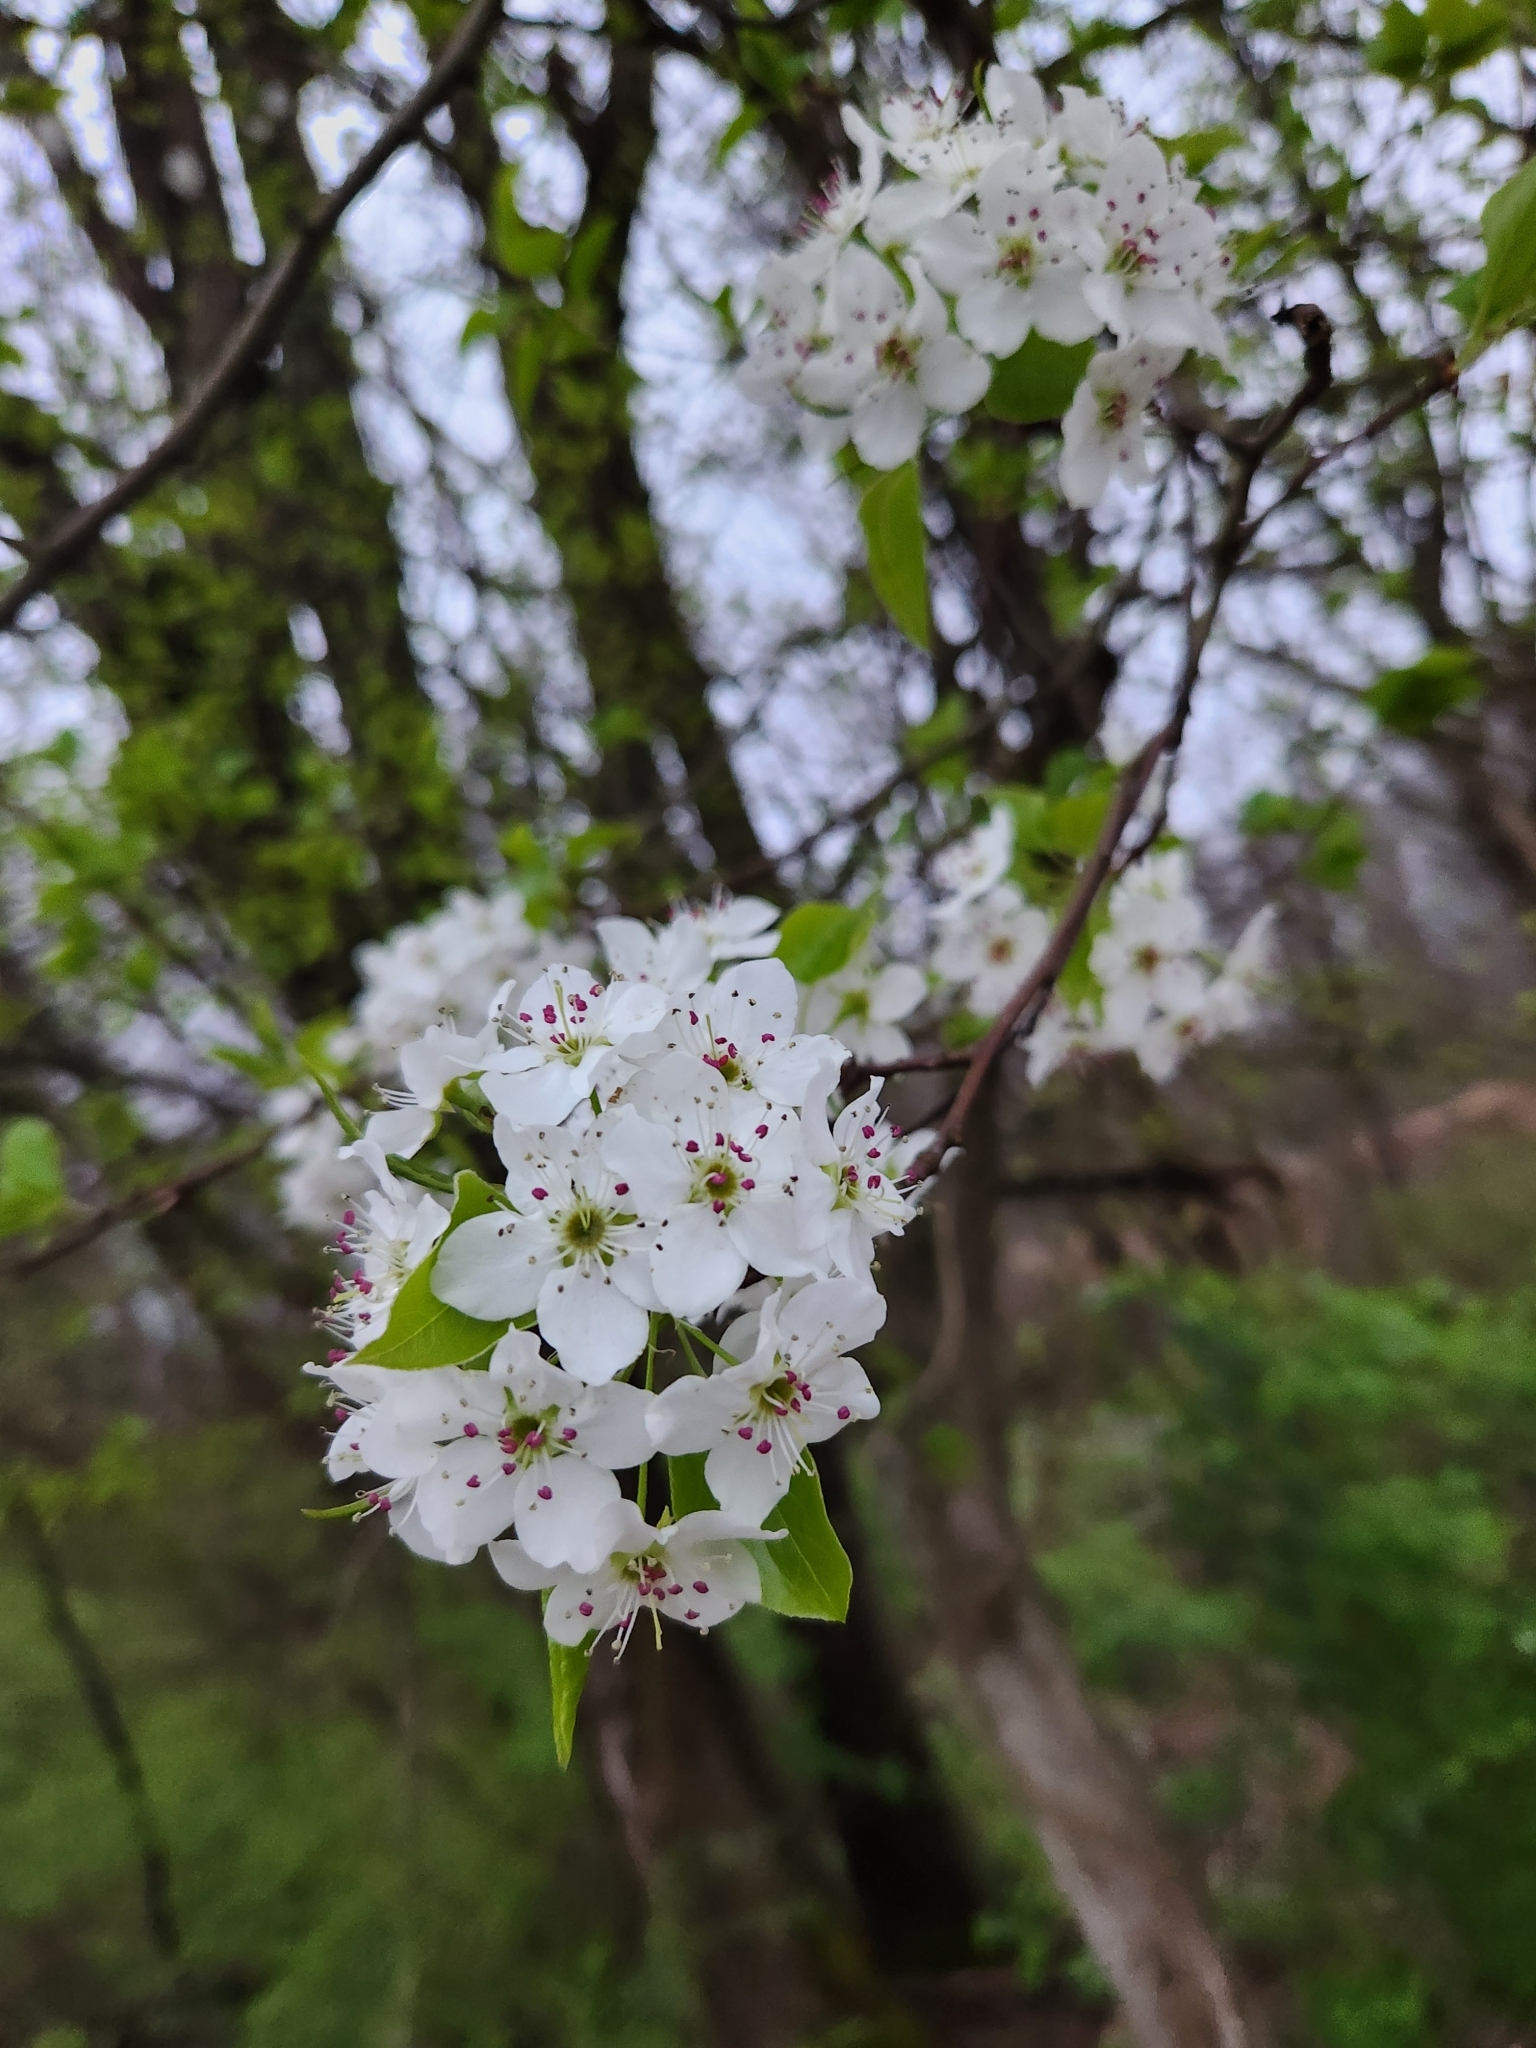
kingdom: Plantae
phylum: Tracheophyta
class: Magnoliopsida
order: Rosales
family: Rosaceae
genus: Pyrus
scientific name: Pyrus calleryana
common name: Callery pear
